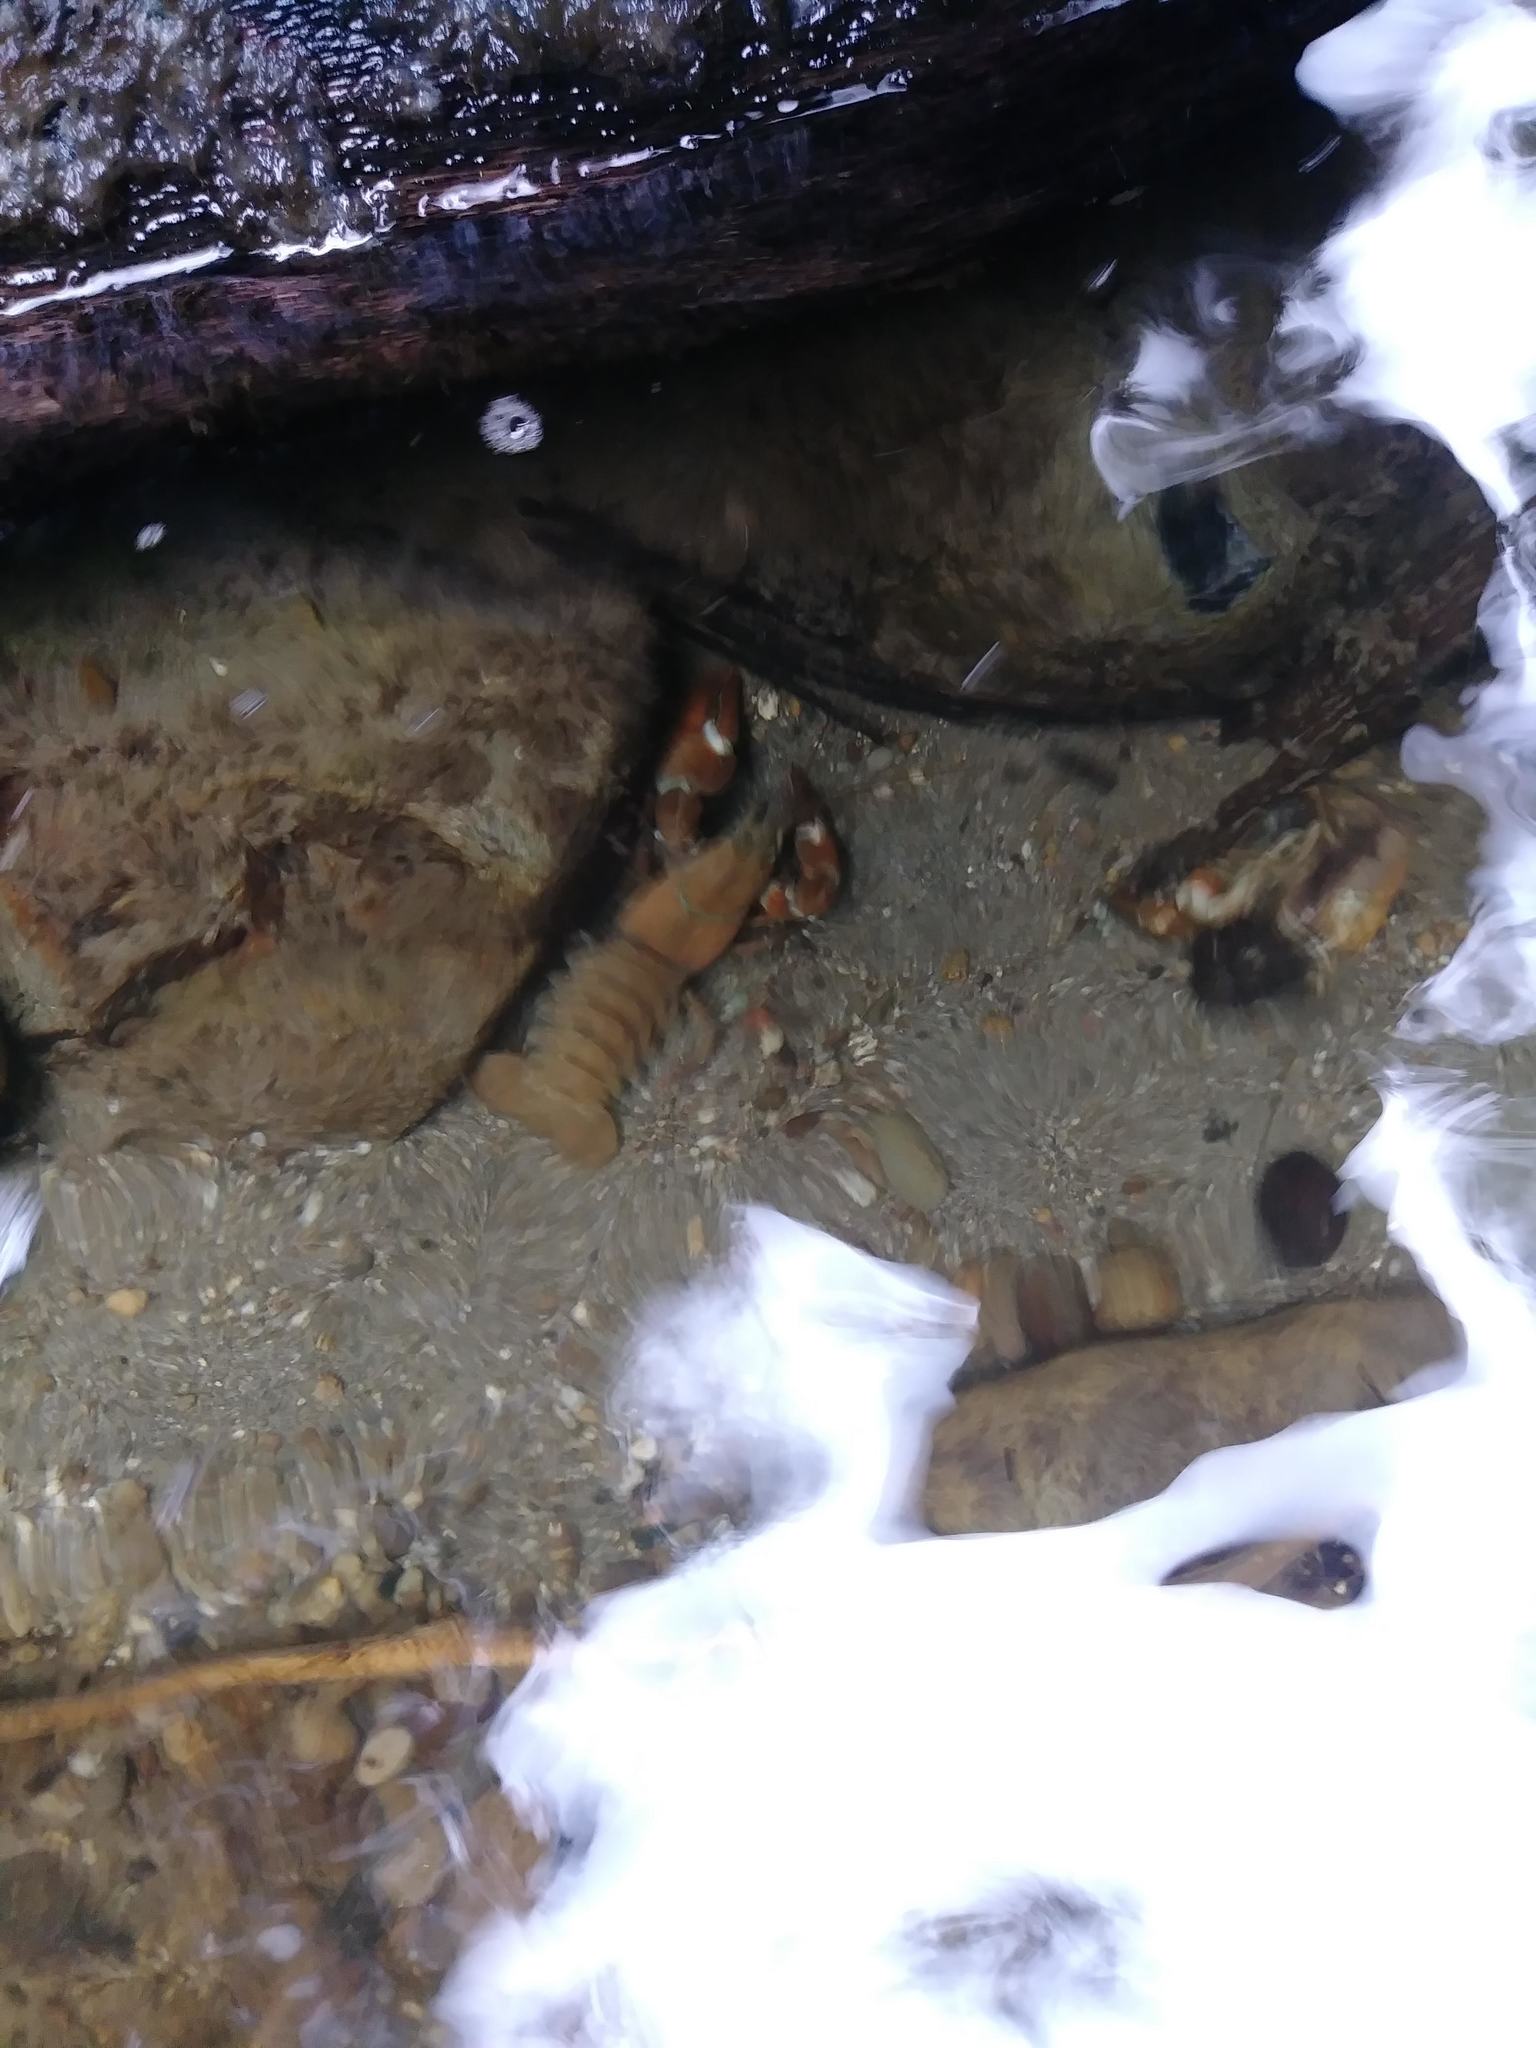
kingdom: Animalia
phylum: Arthropoda
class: Malacostraca
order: Decapoda
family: Astacidae
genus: Pacifastacus
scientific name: Pacifastacus leniusculus
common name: Signal crayfish
